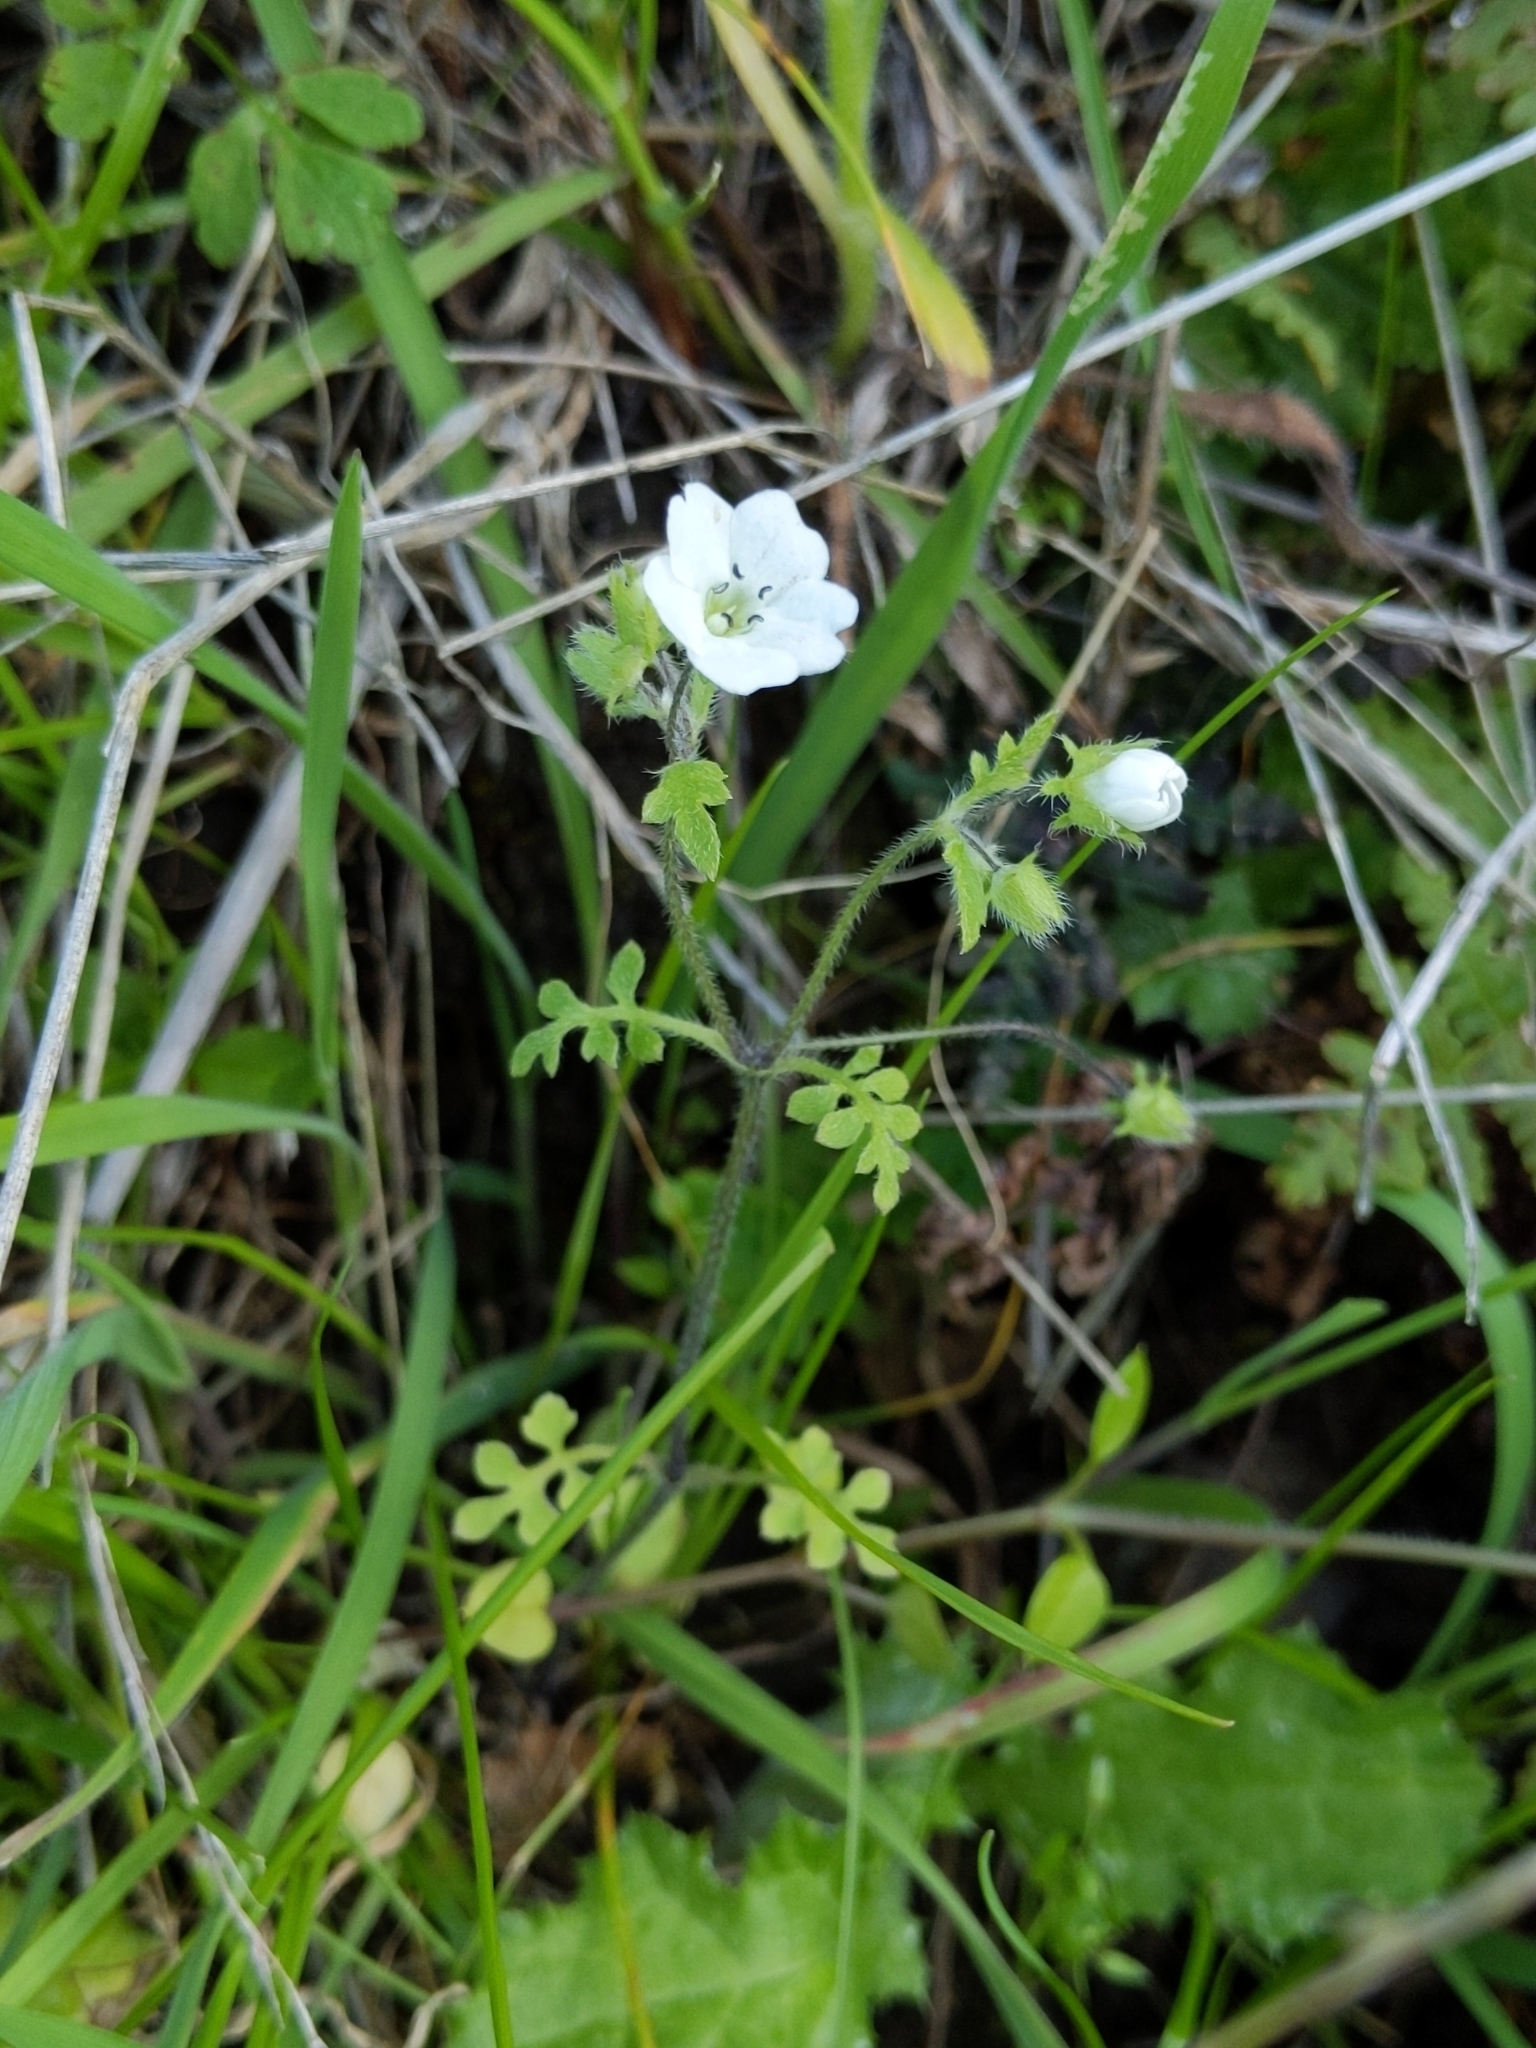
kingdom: Plantae
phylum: Tracheophyta
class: Magnoliopsida
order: Boraginales
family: Hydrophyllaceae
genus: Nemophila
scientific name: Nemophila heterophylla
